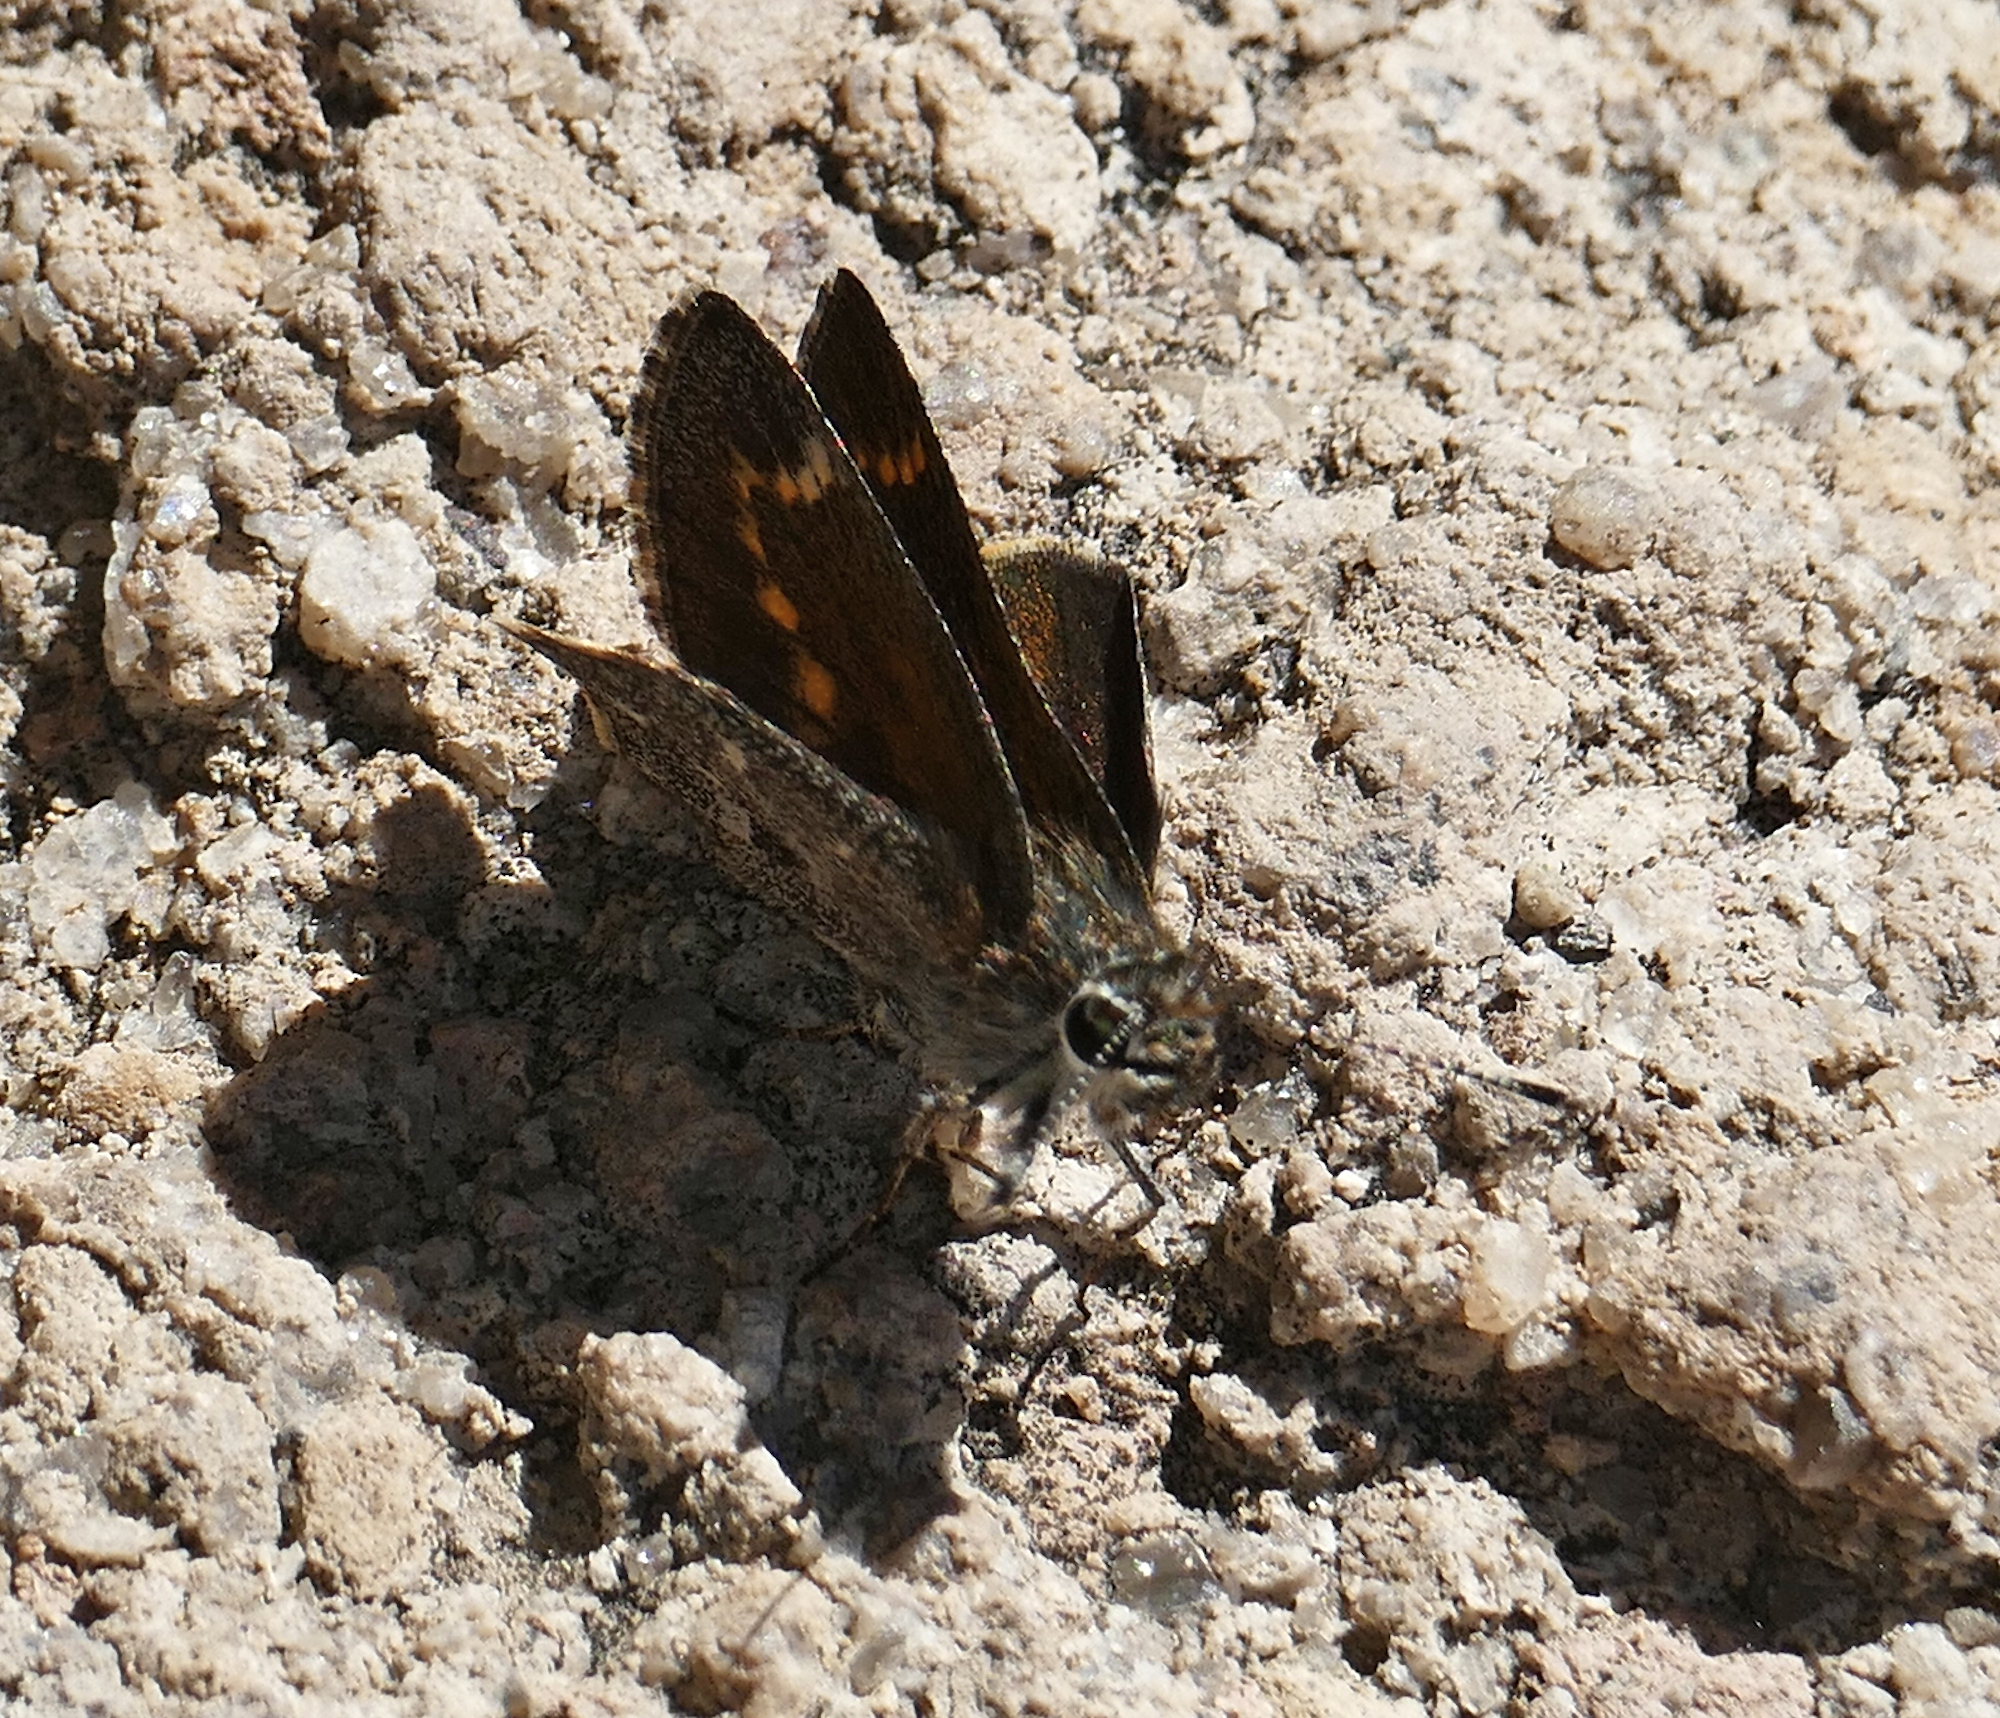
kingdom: Animalia
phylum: Arthropoda
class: Insecta
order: Lepidoptera
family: Hesperiidae
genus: Mastor
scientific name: Mastor cassus
